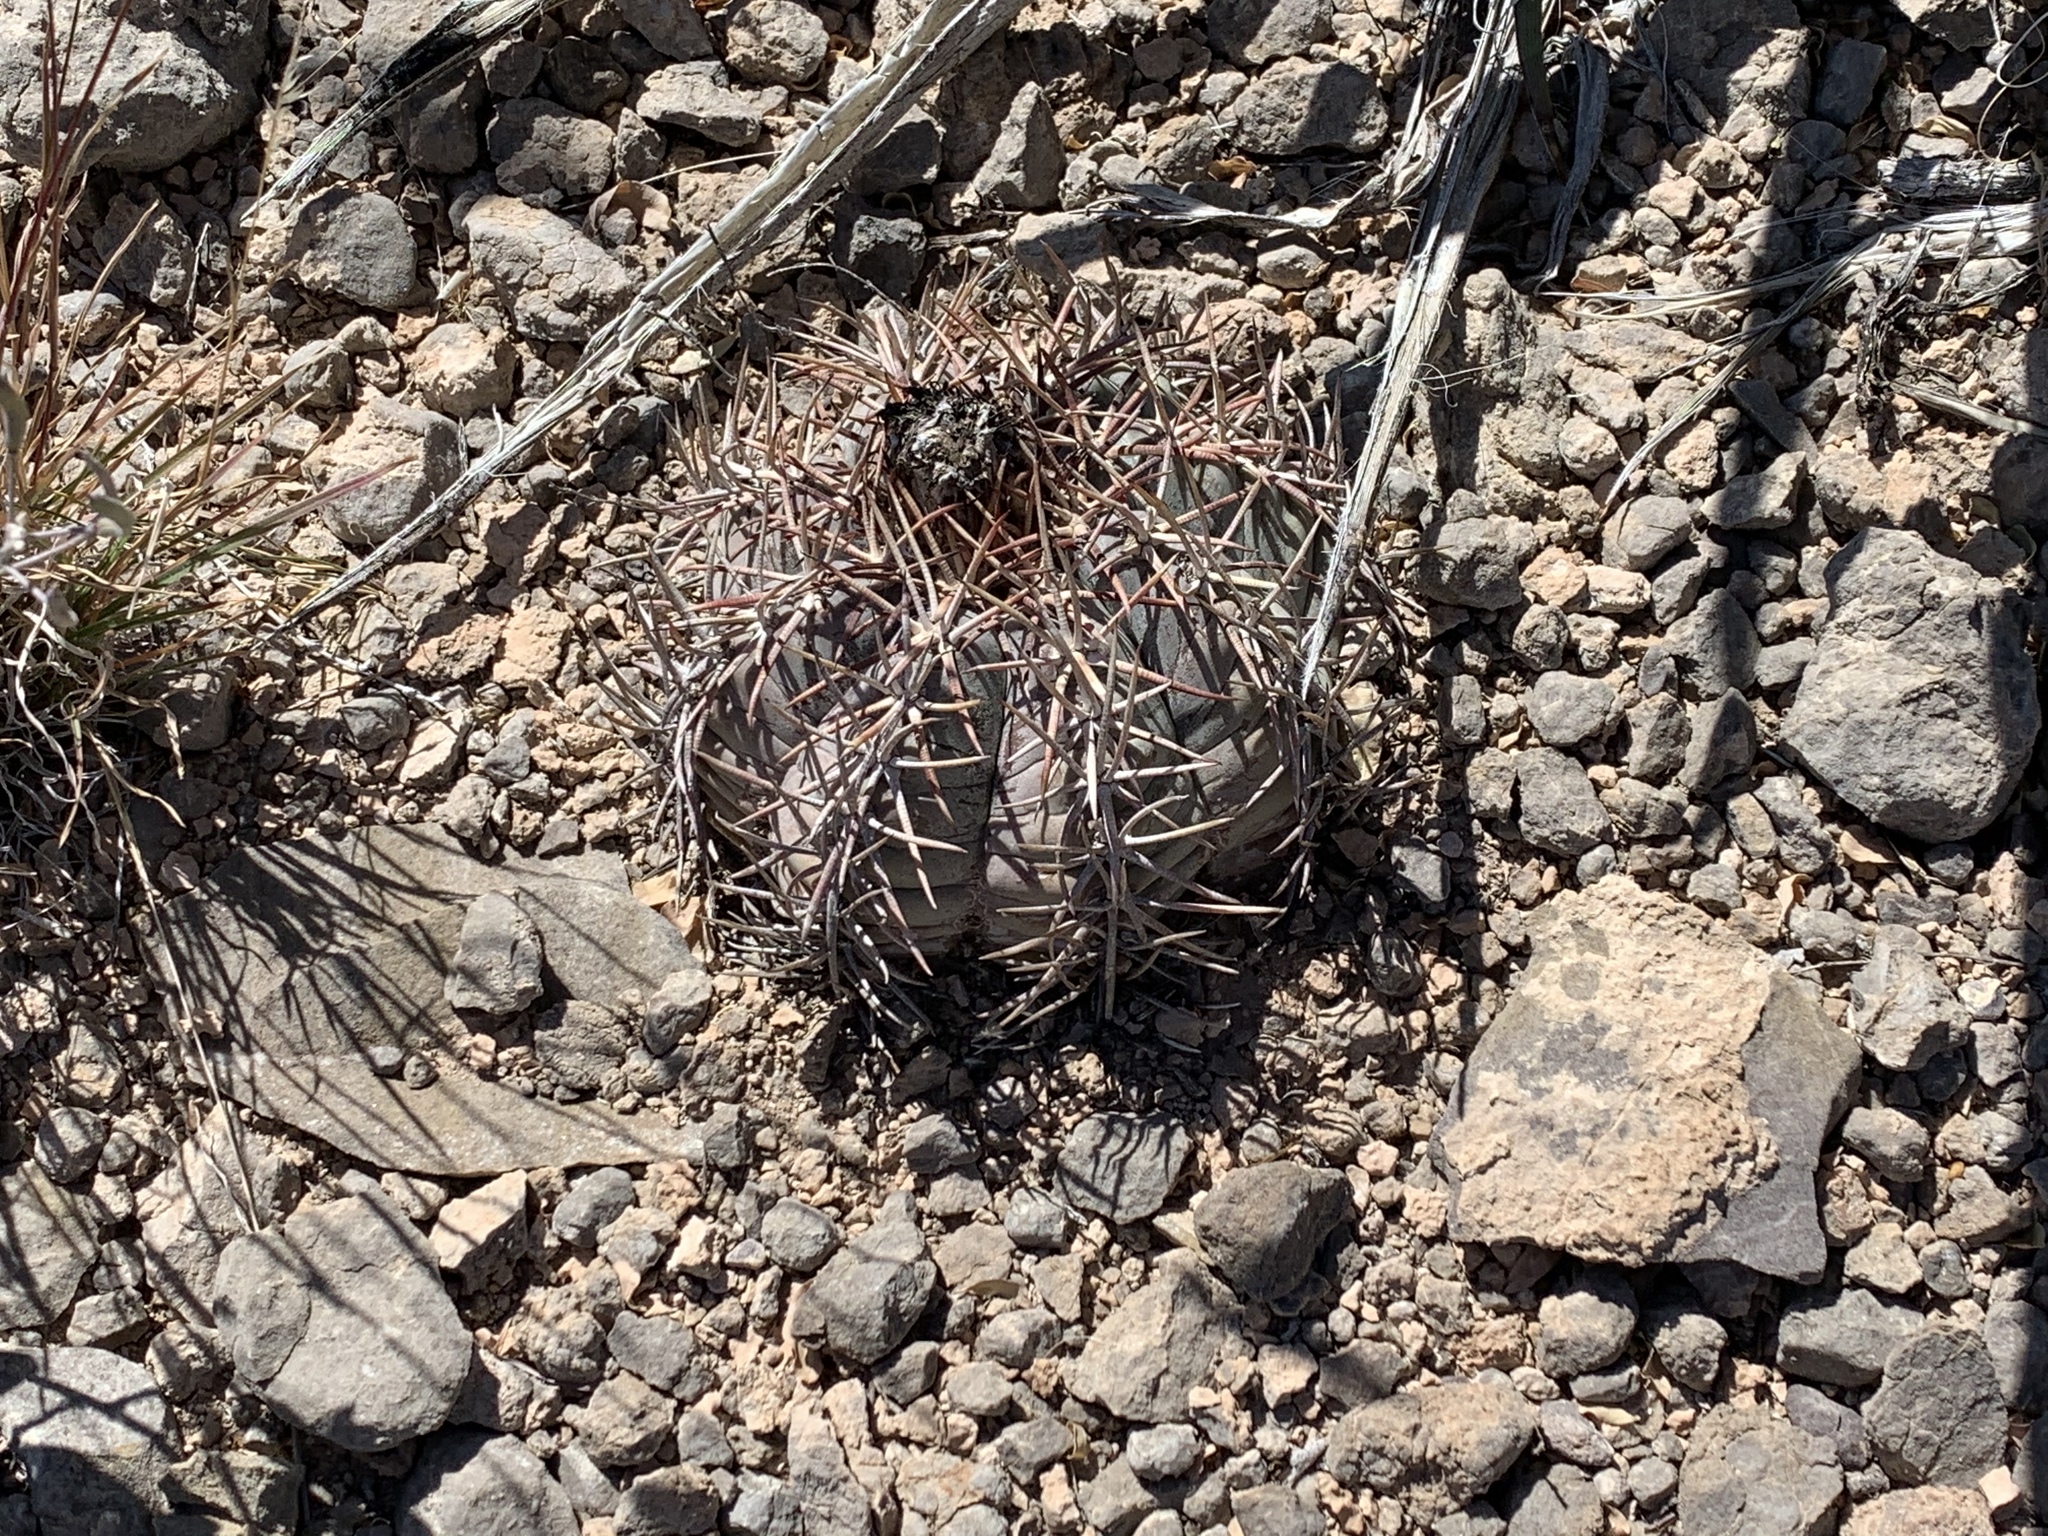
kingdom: Plantae
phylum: Tracheophyta
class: Magnoliopsida
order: Caryophyllales
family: Cactaceae
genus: Echinocactus
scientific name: Echinocactus horizonthalonius
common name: Devilshead
